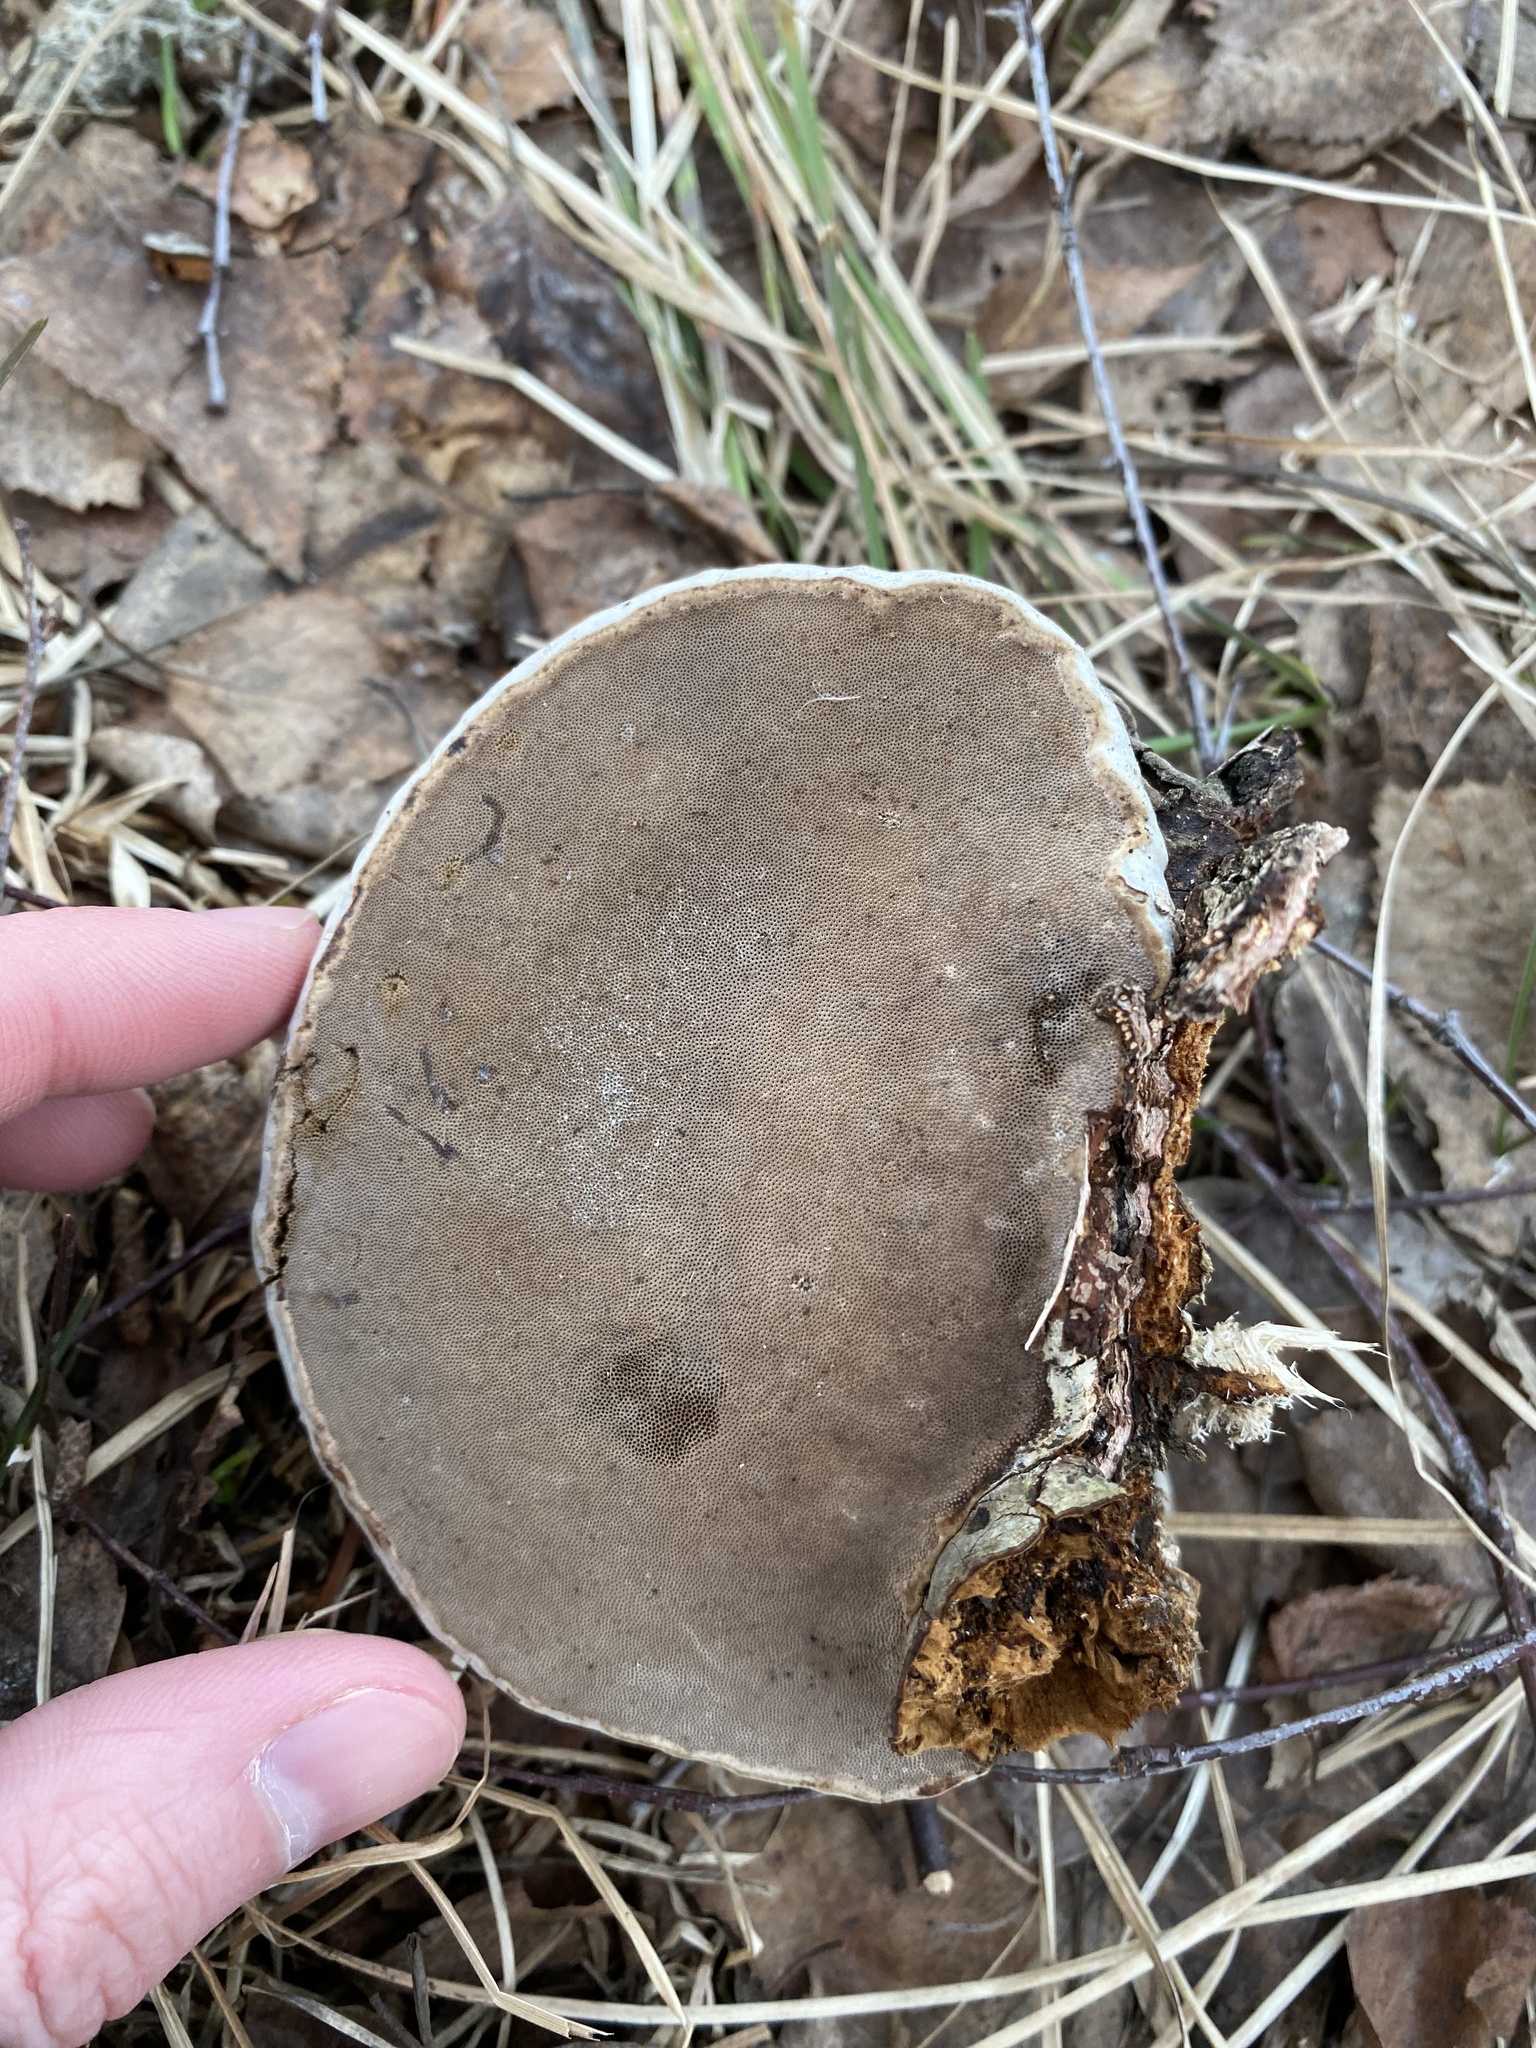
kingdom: Fungi
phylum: Basidiomycota
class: Agaricomycetes
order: Polyporales
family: Polyporaceae
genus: Fomes
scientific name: Fomes fomentarius
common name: Hoof fungus
